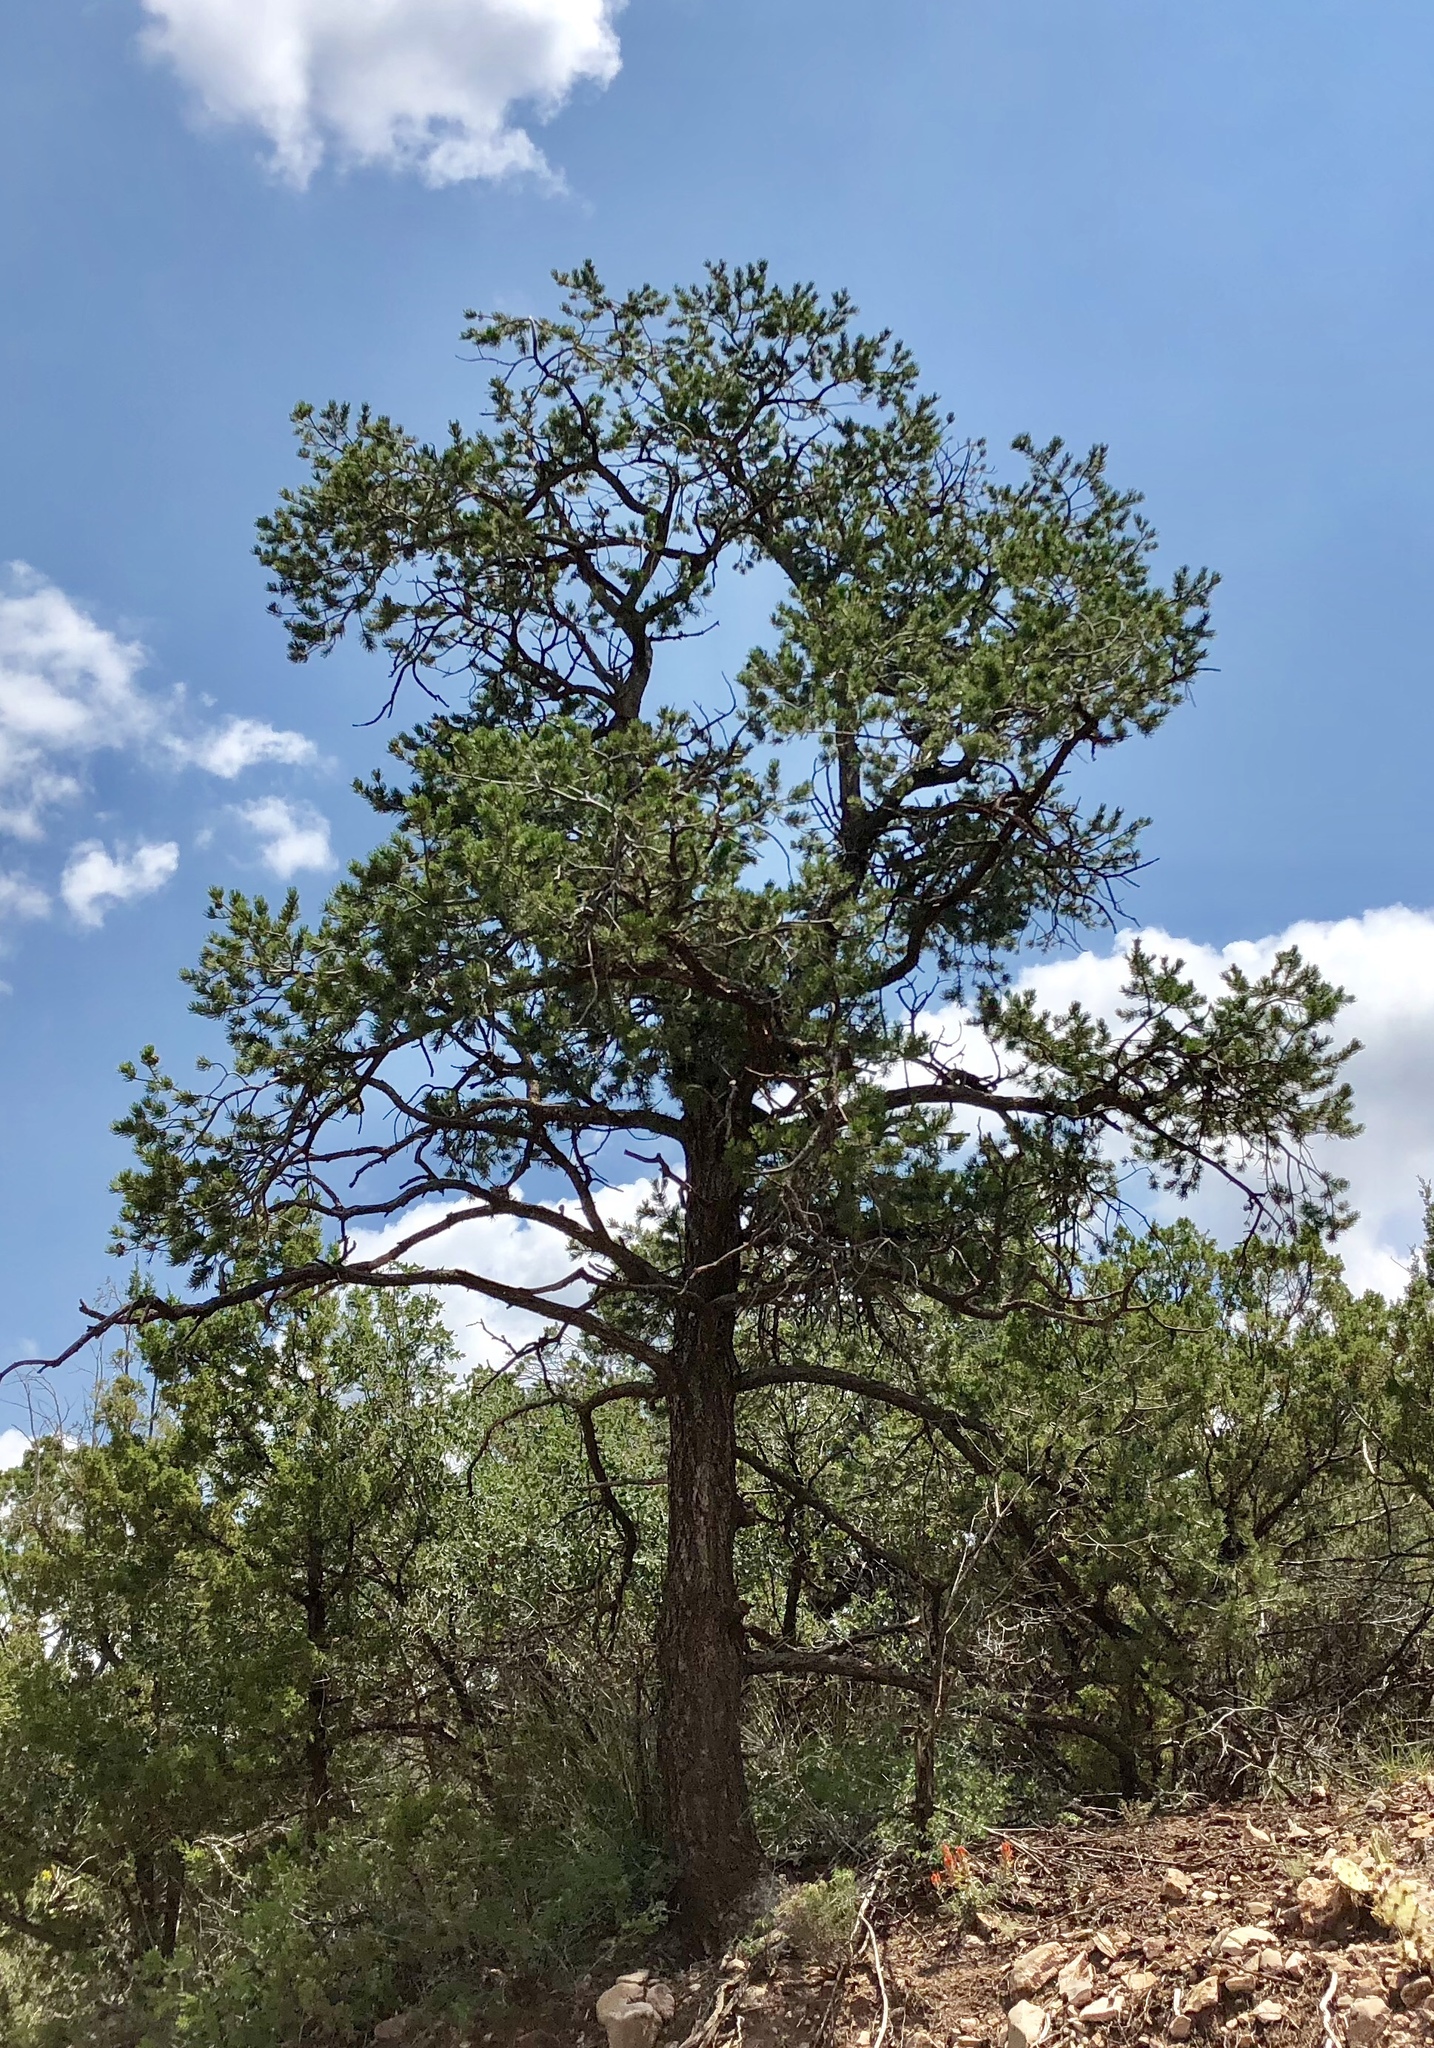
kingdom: Plantae
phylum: Tracheophyta
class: Pinopsida
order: Pinales
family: Pinaceae
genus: Pinus
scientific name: Pinus edulis
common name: Colorado pinyon
